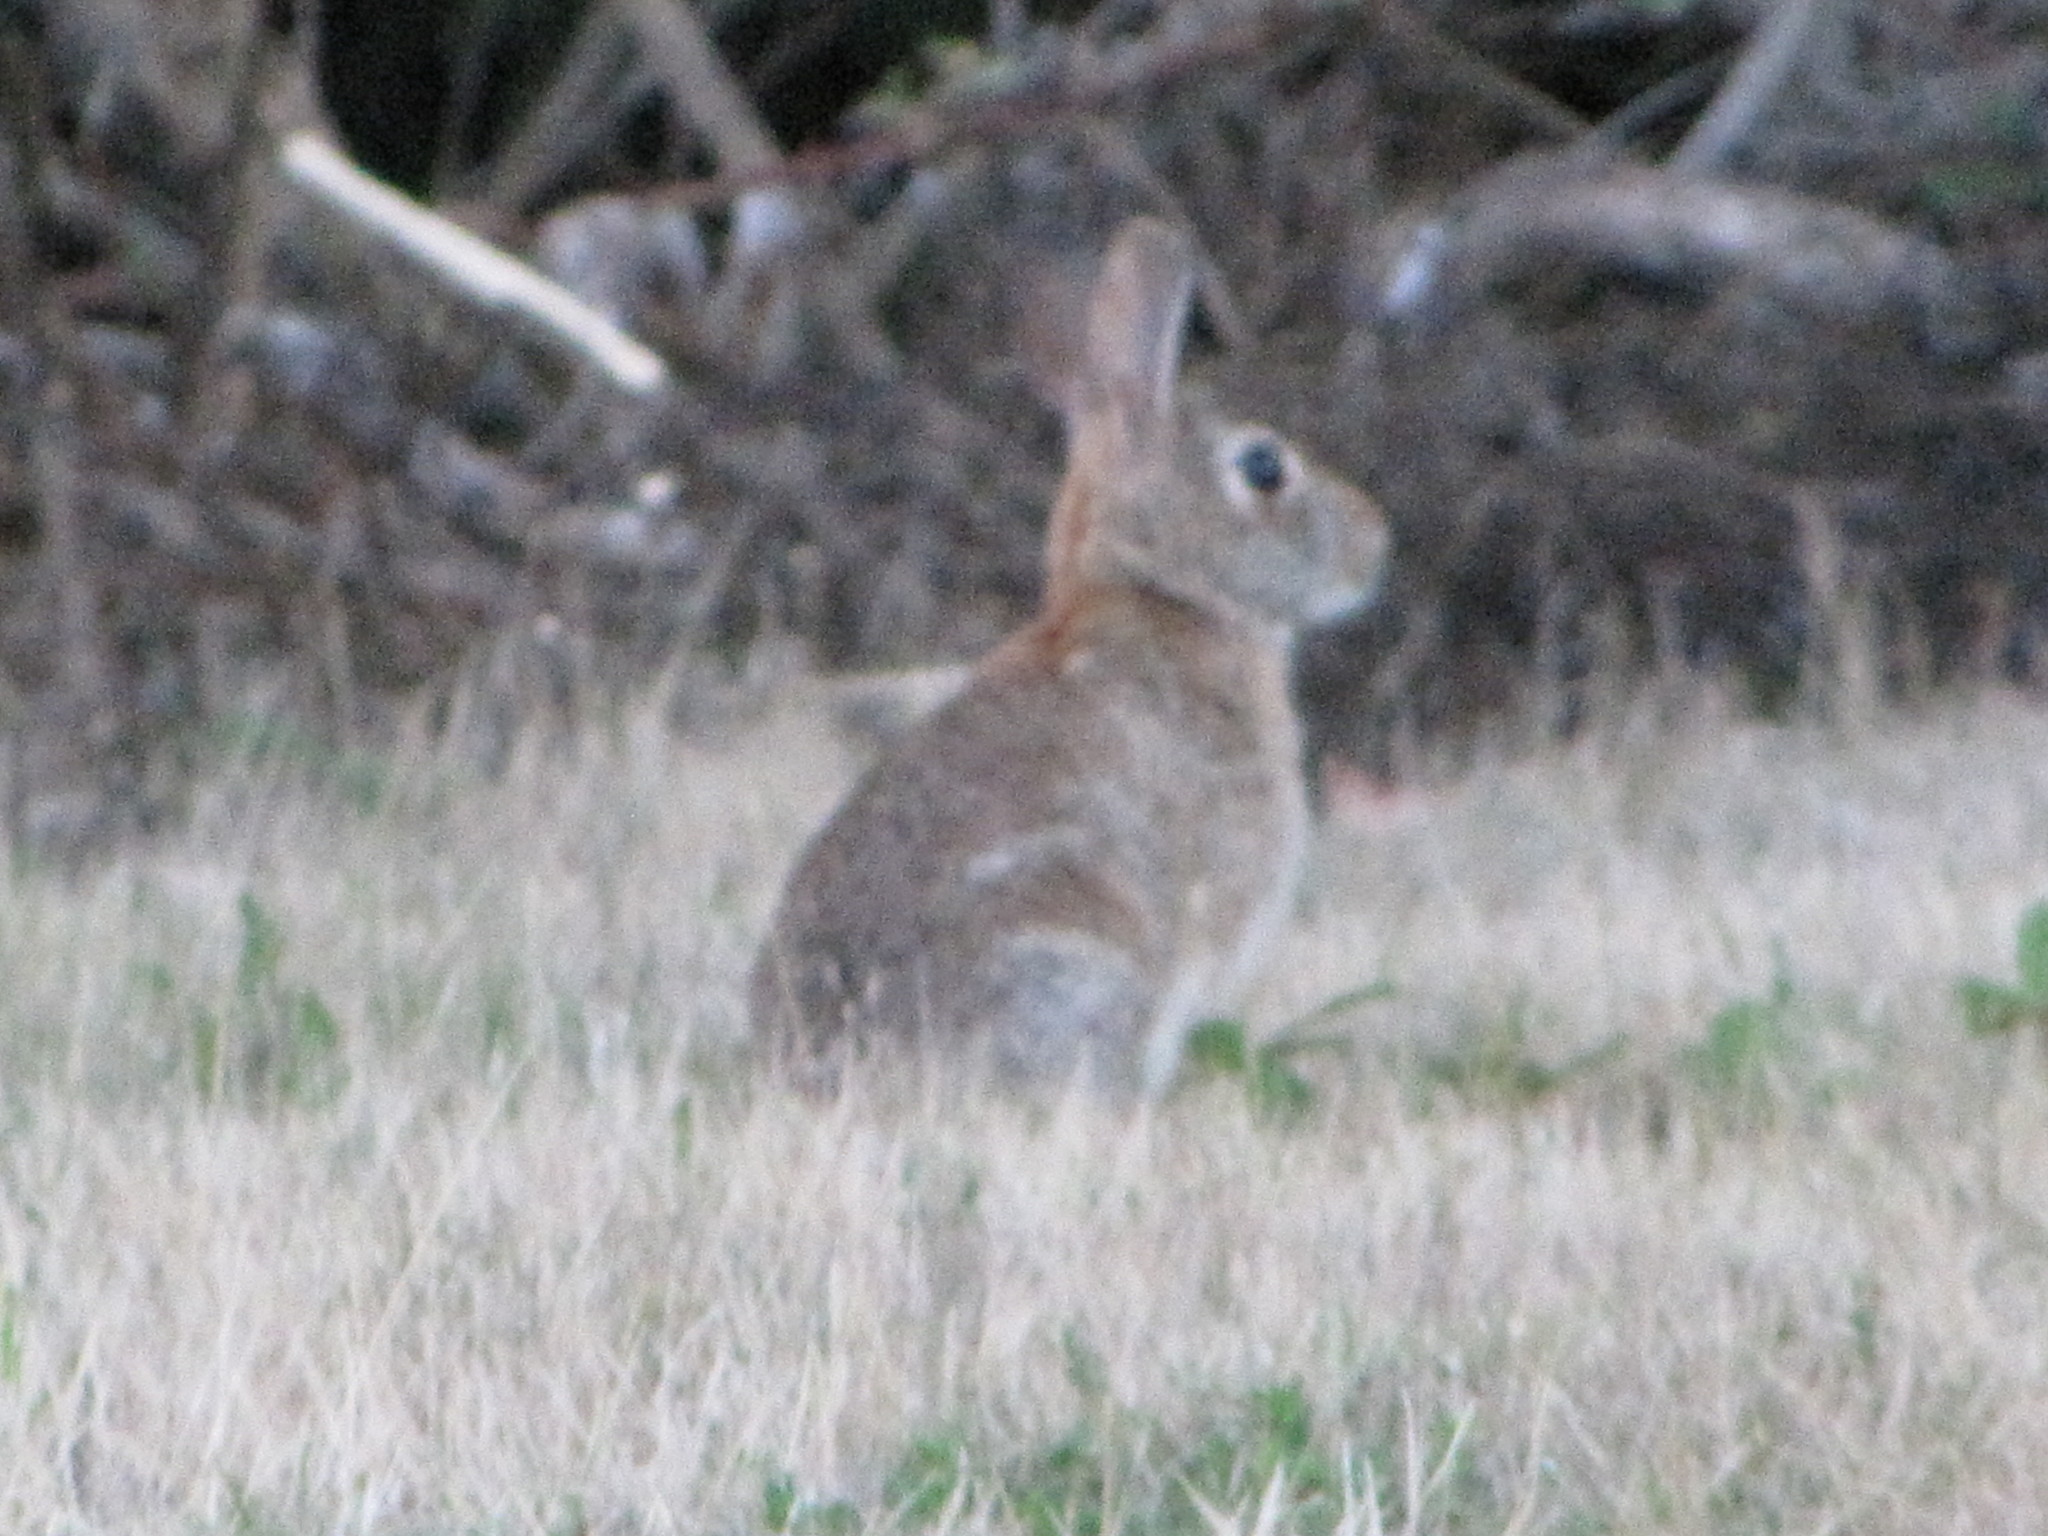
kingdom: Animalia
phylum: Chordata
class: Mammalia
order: Lagomorpha
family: Leporidae
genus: Sylvilagus
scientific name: Sylvilagus floridanus
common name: Eastern cottontail
